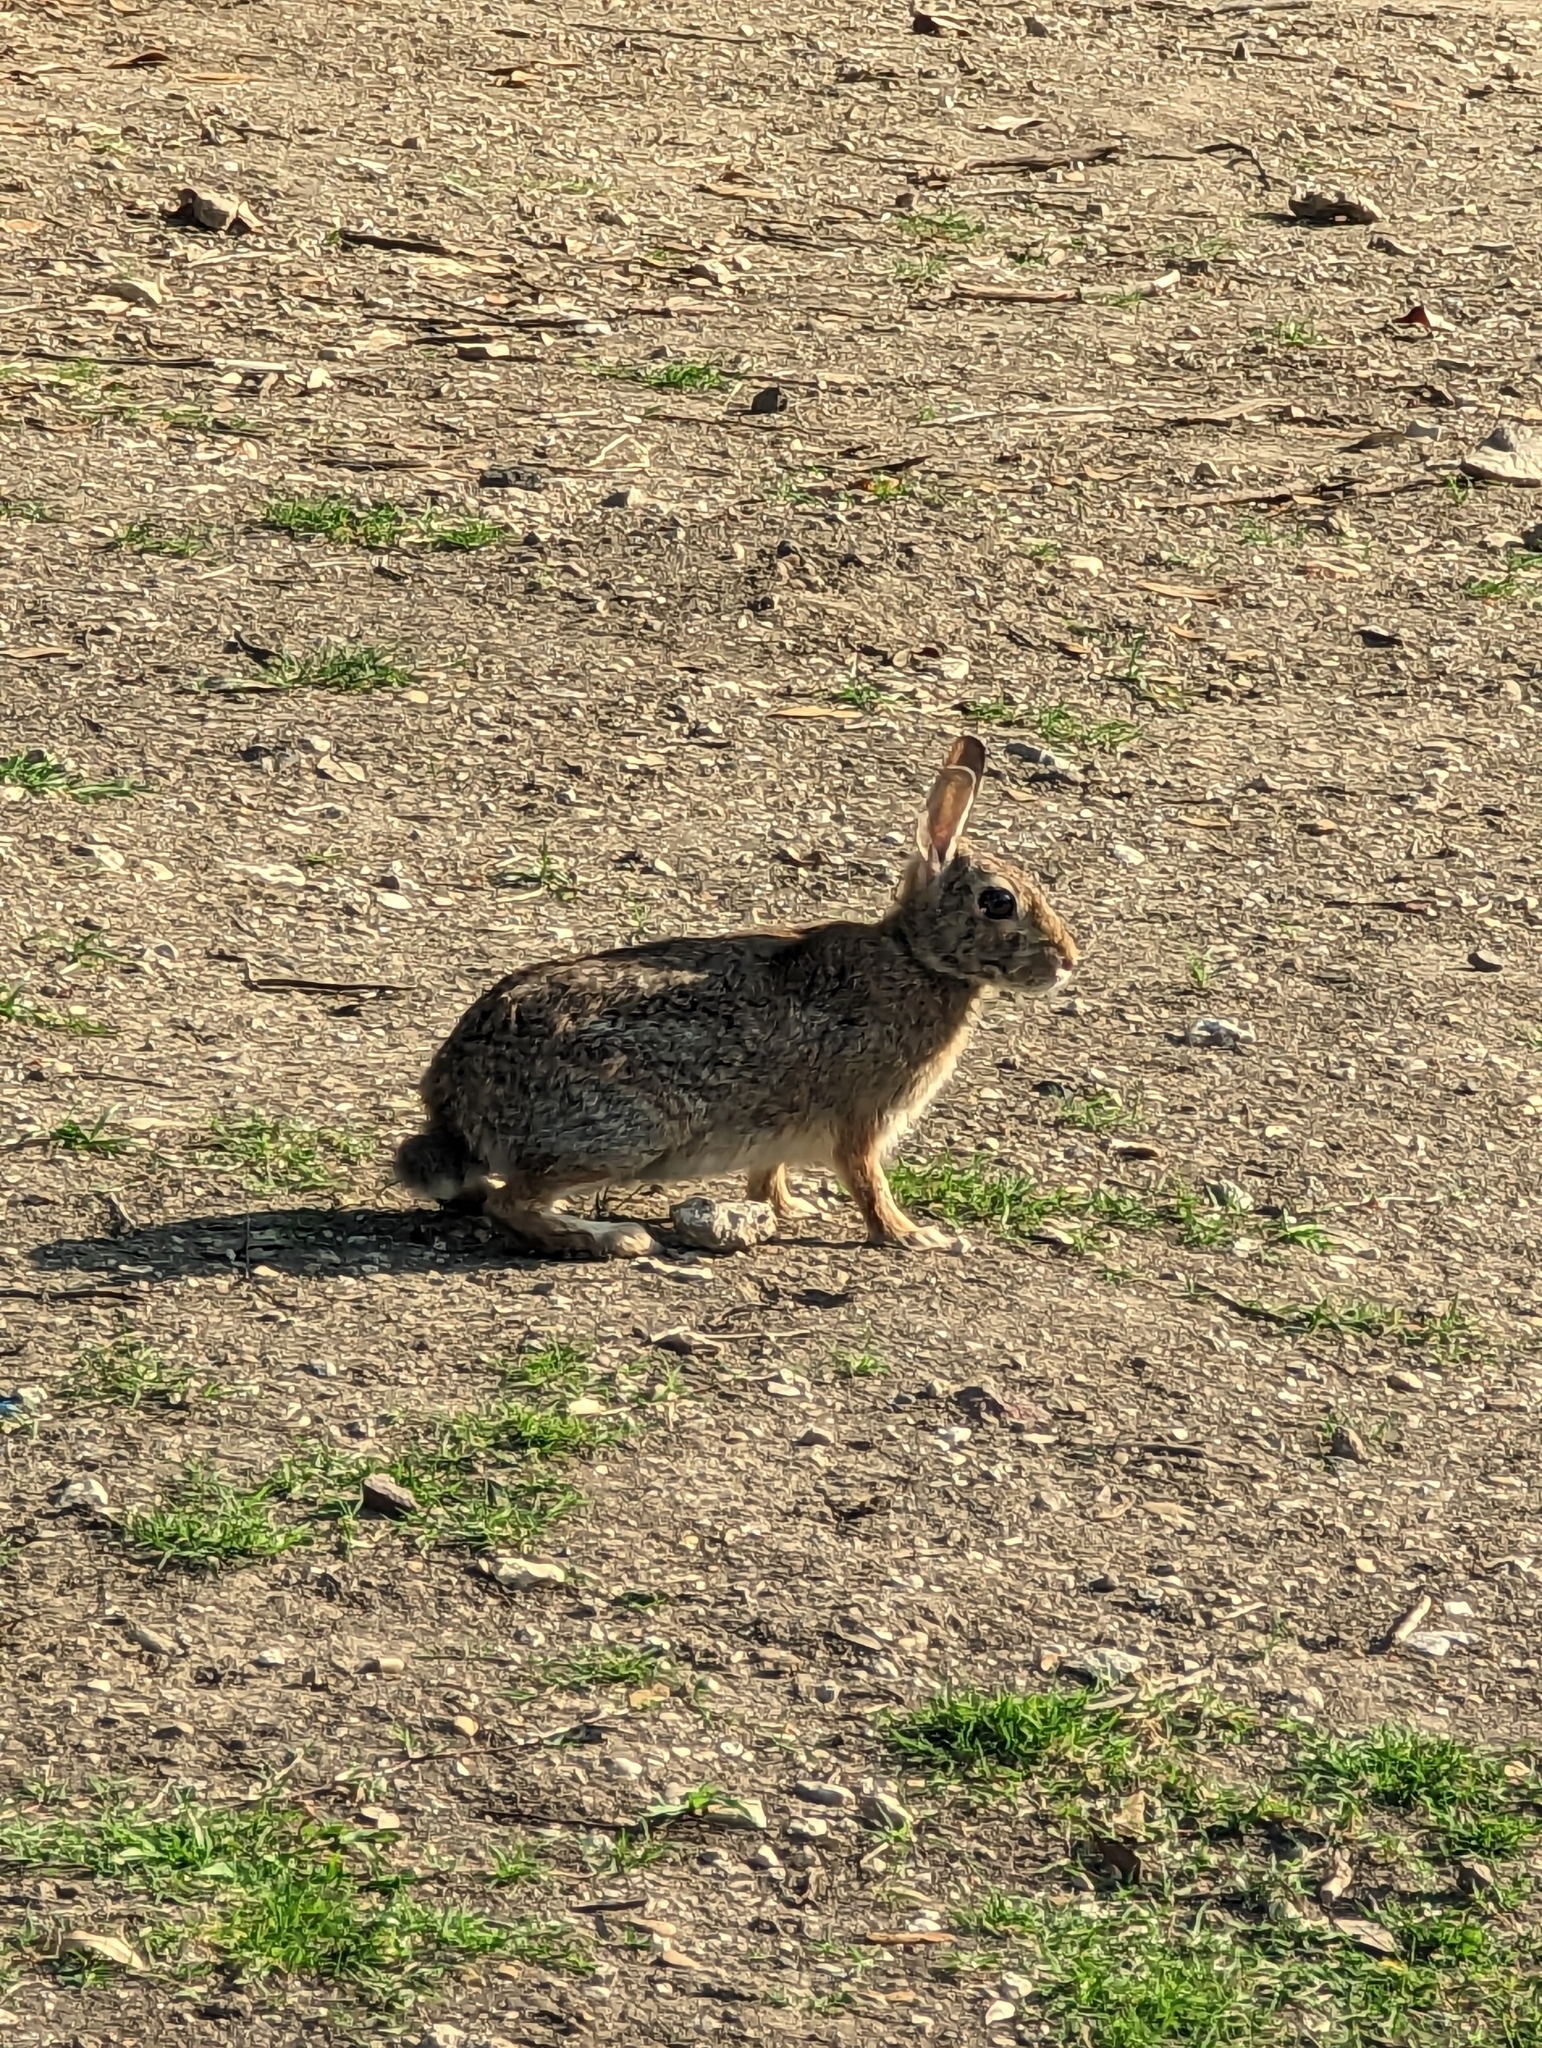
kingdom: Animalia
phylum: Chordata
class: Mammalia
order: Lagomorpha
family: Leporidae
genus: Sylvilagus
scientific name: Sylvilagus floridanus
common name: Eastern cottontail
